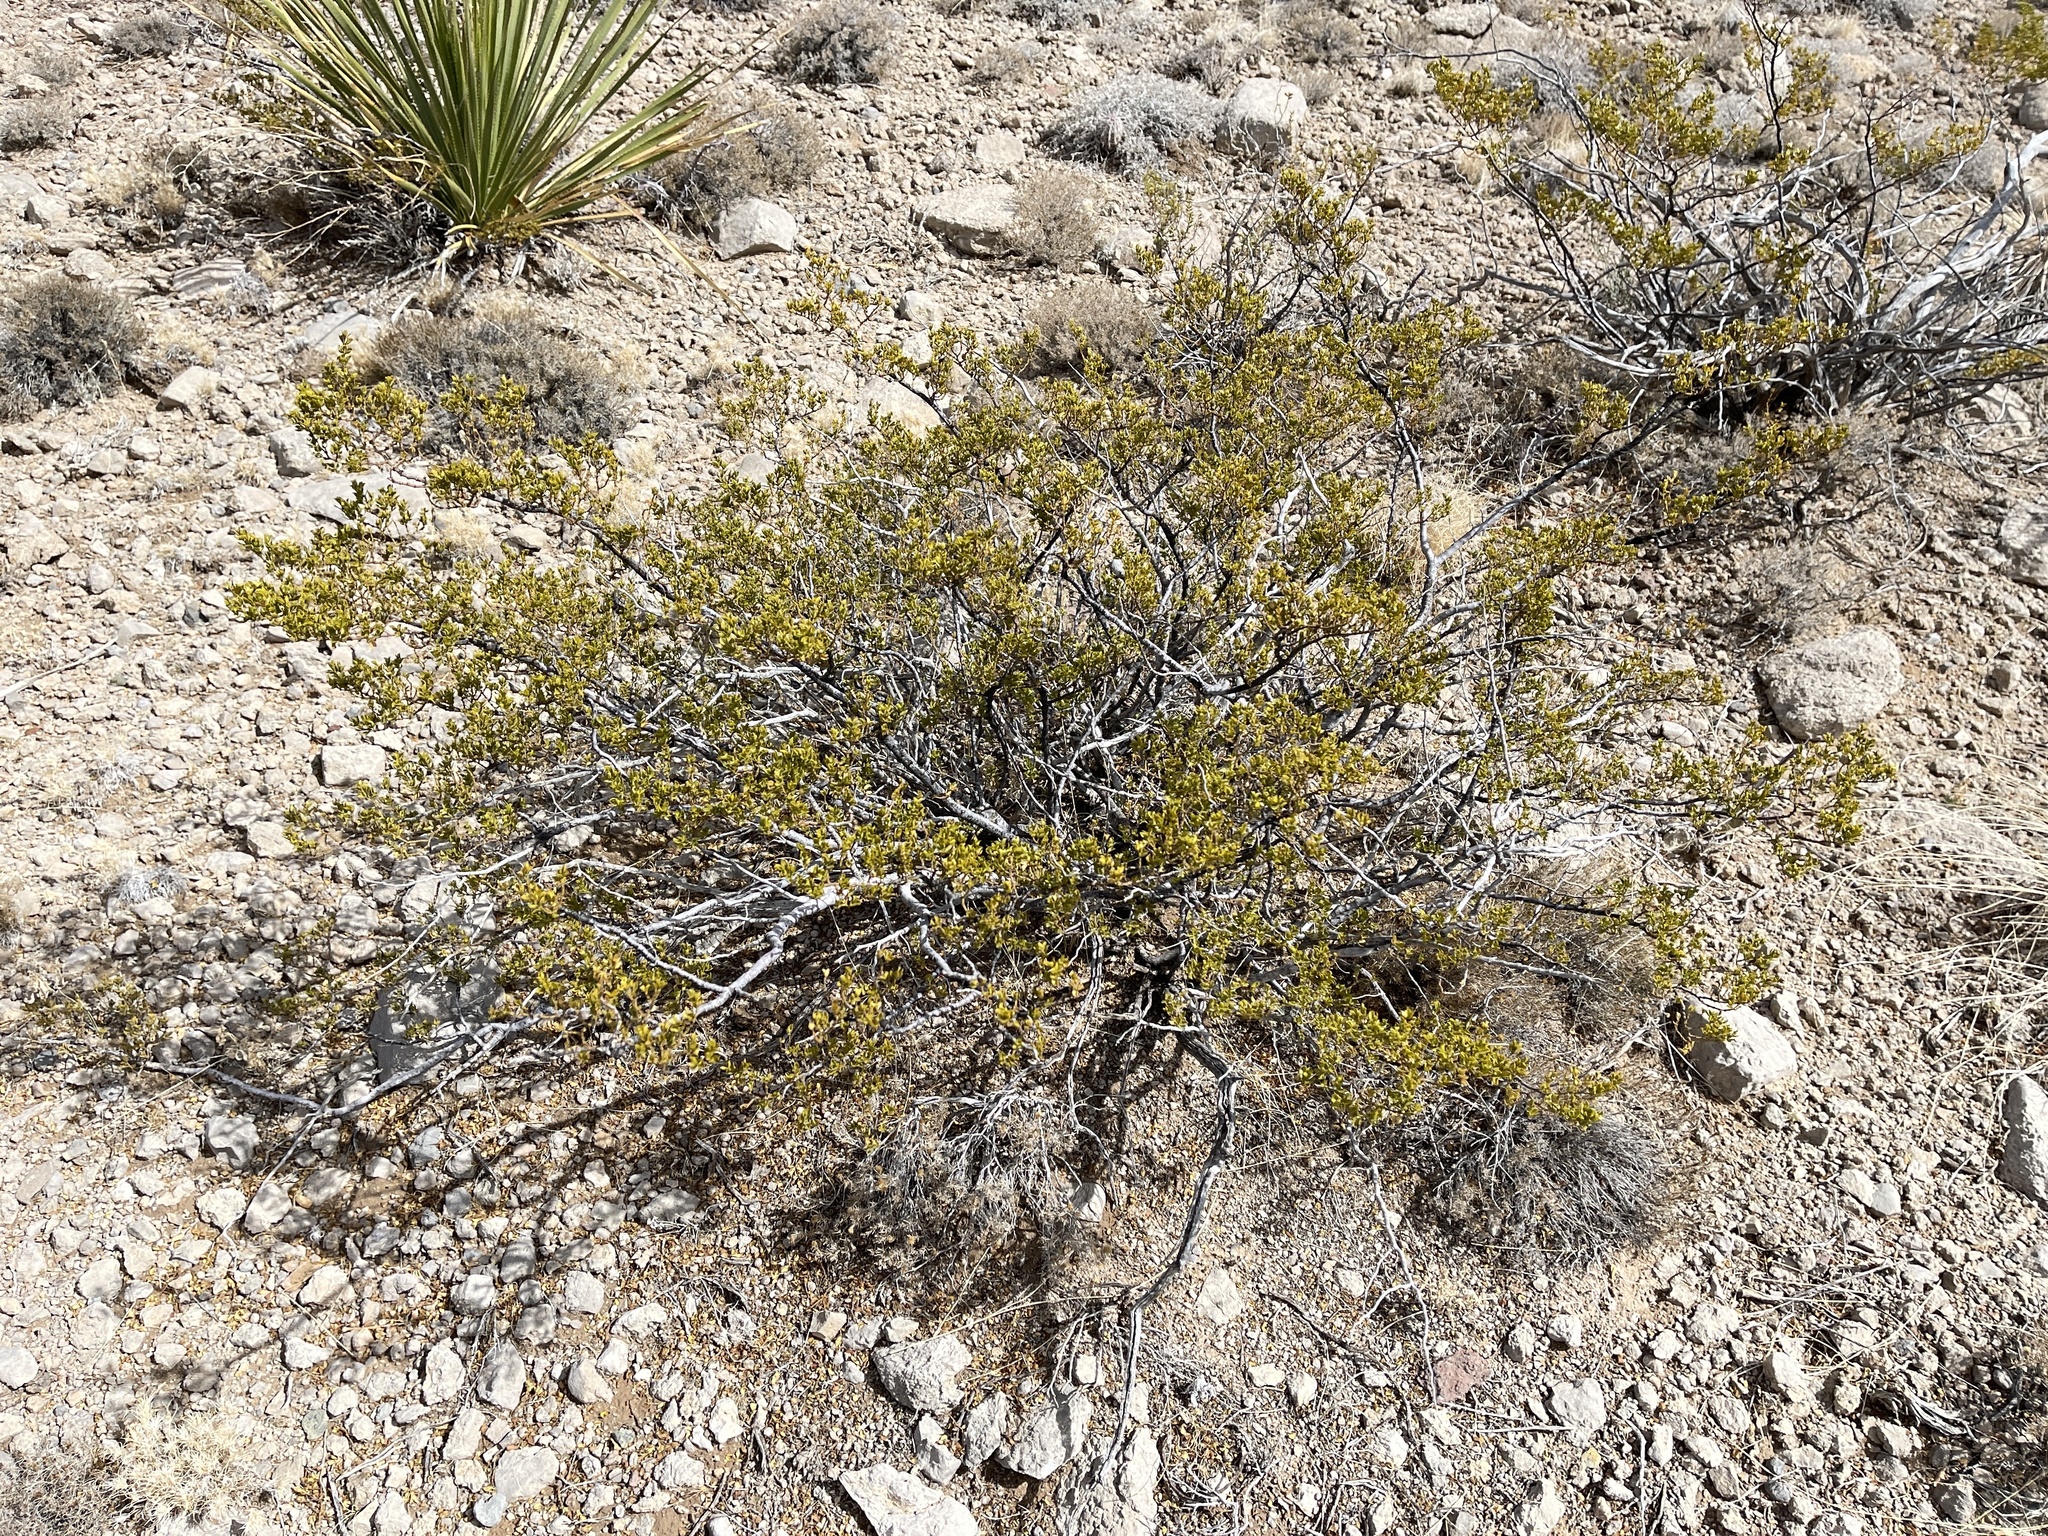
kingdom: Plantae
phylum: Tracheophyta
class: Magnoliopsida
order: Zygophyllales
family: Zygophyllaceae
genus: Larrea
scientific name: Larrea tridentata
